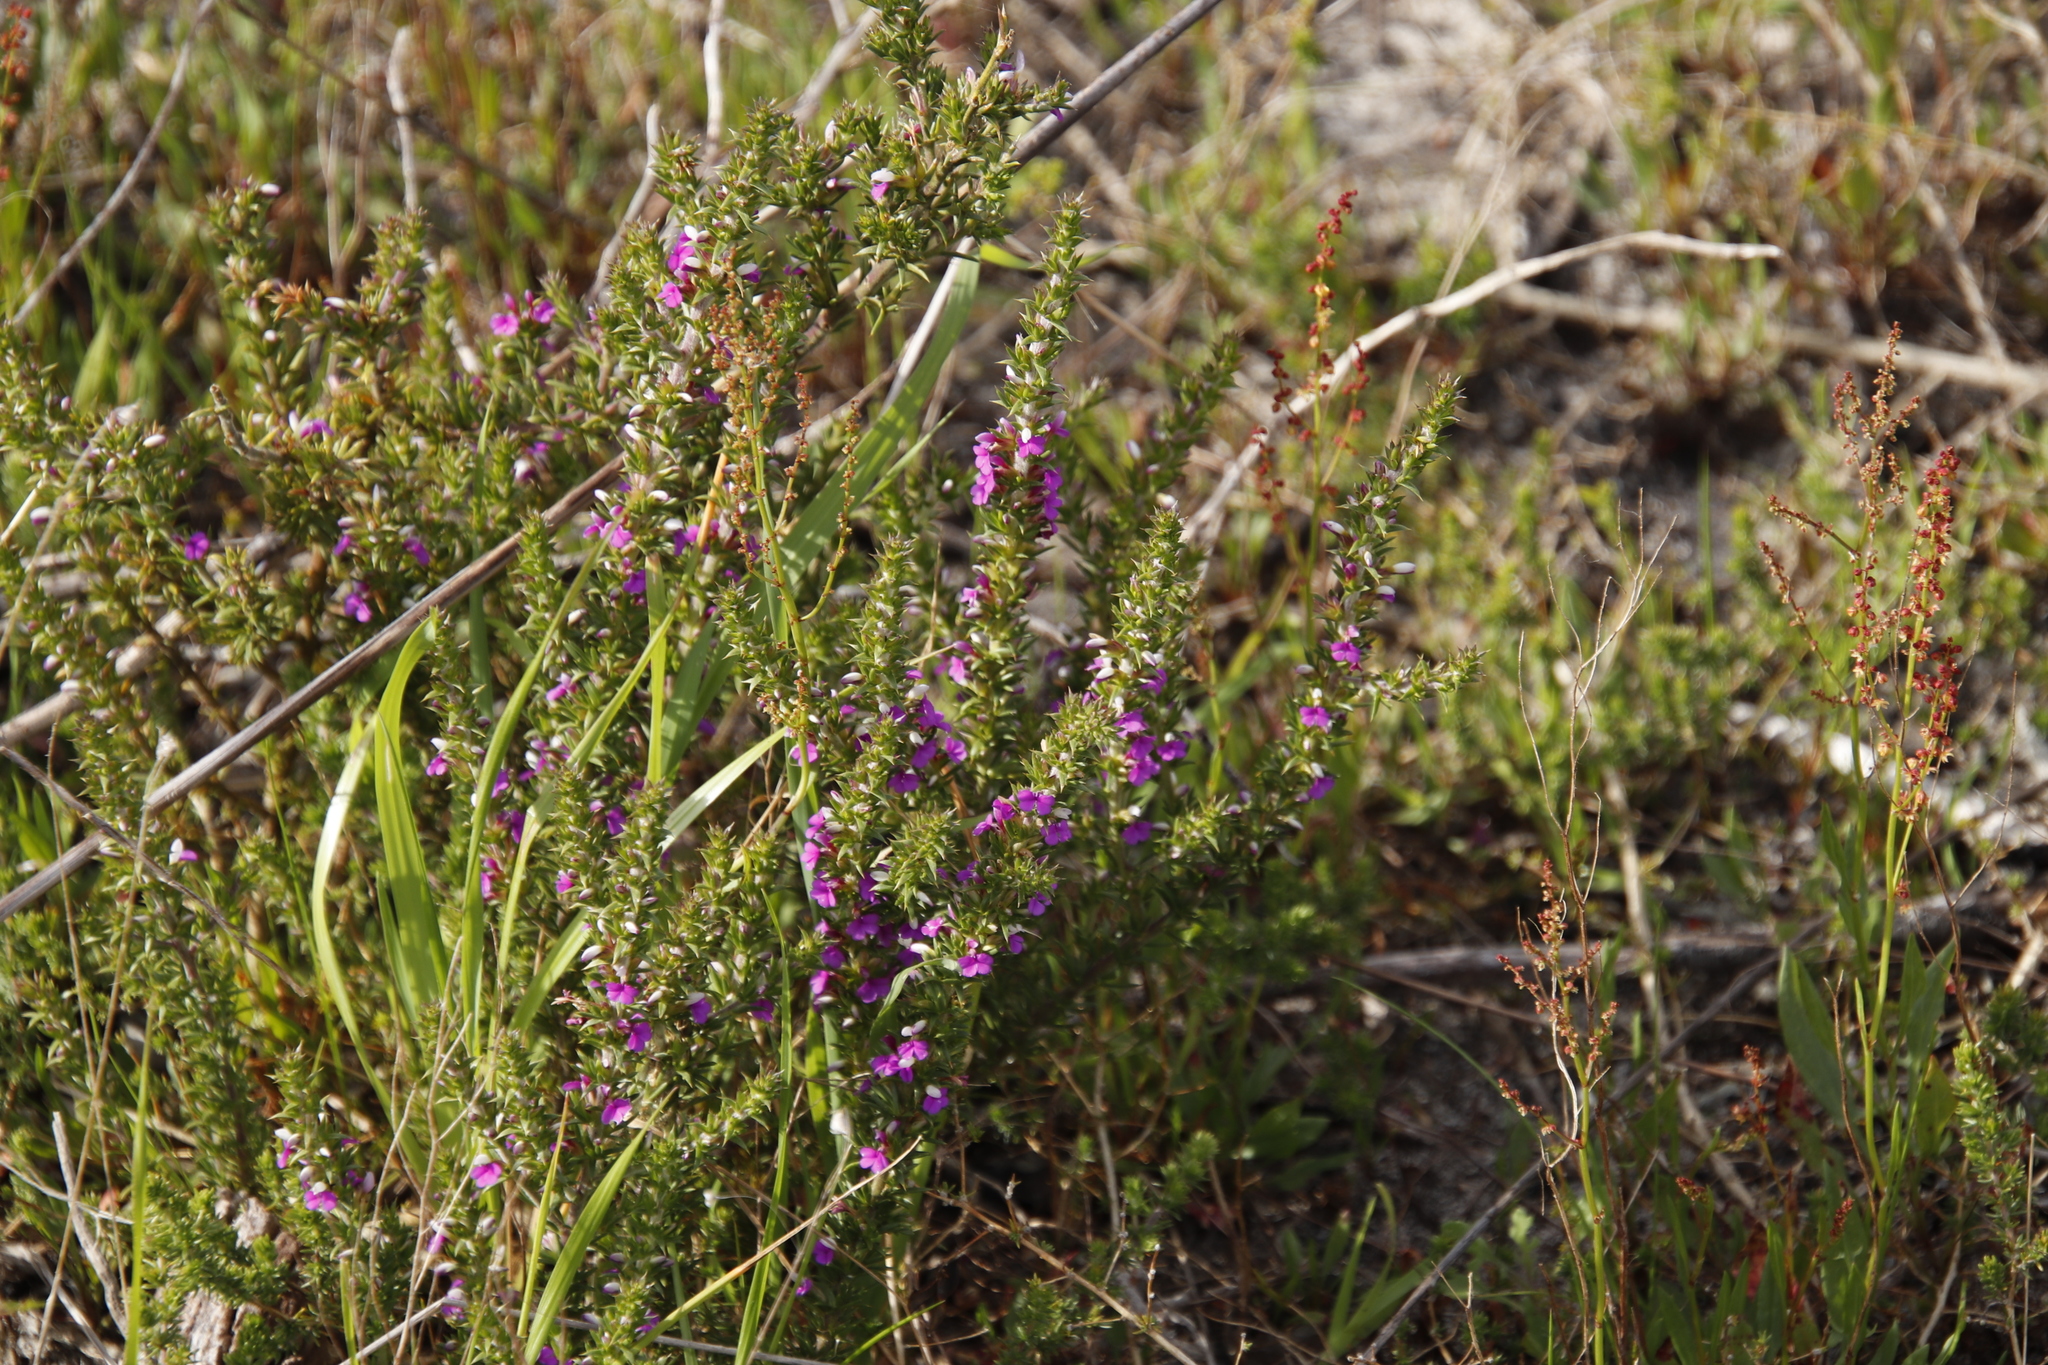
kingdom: Plantae
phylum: Tracheophyta
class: Magnoliopsida
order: Fabales
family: Polygalaceae
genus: Muraltia
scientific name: Muraltia heisteria
